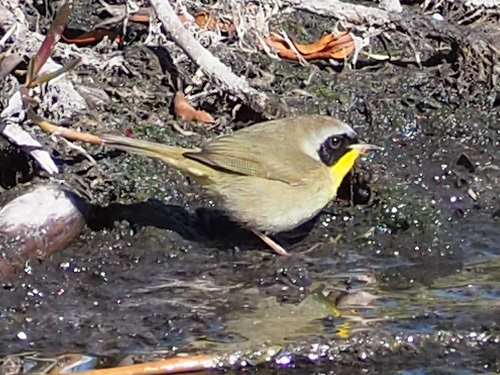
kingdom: Animalia
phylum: Chordata
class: Aves
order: Passeriformes
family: Parulidae
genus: Geothlypis
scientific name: Geothlypis trichas
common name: Common yellowthroat
